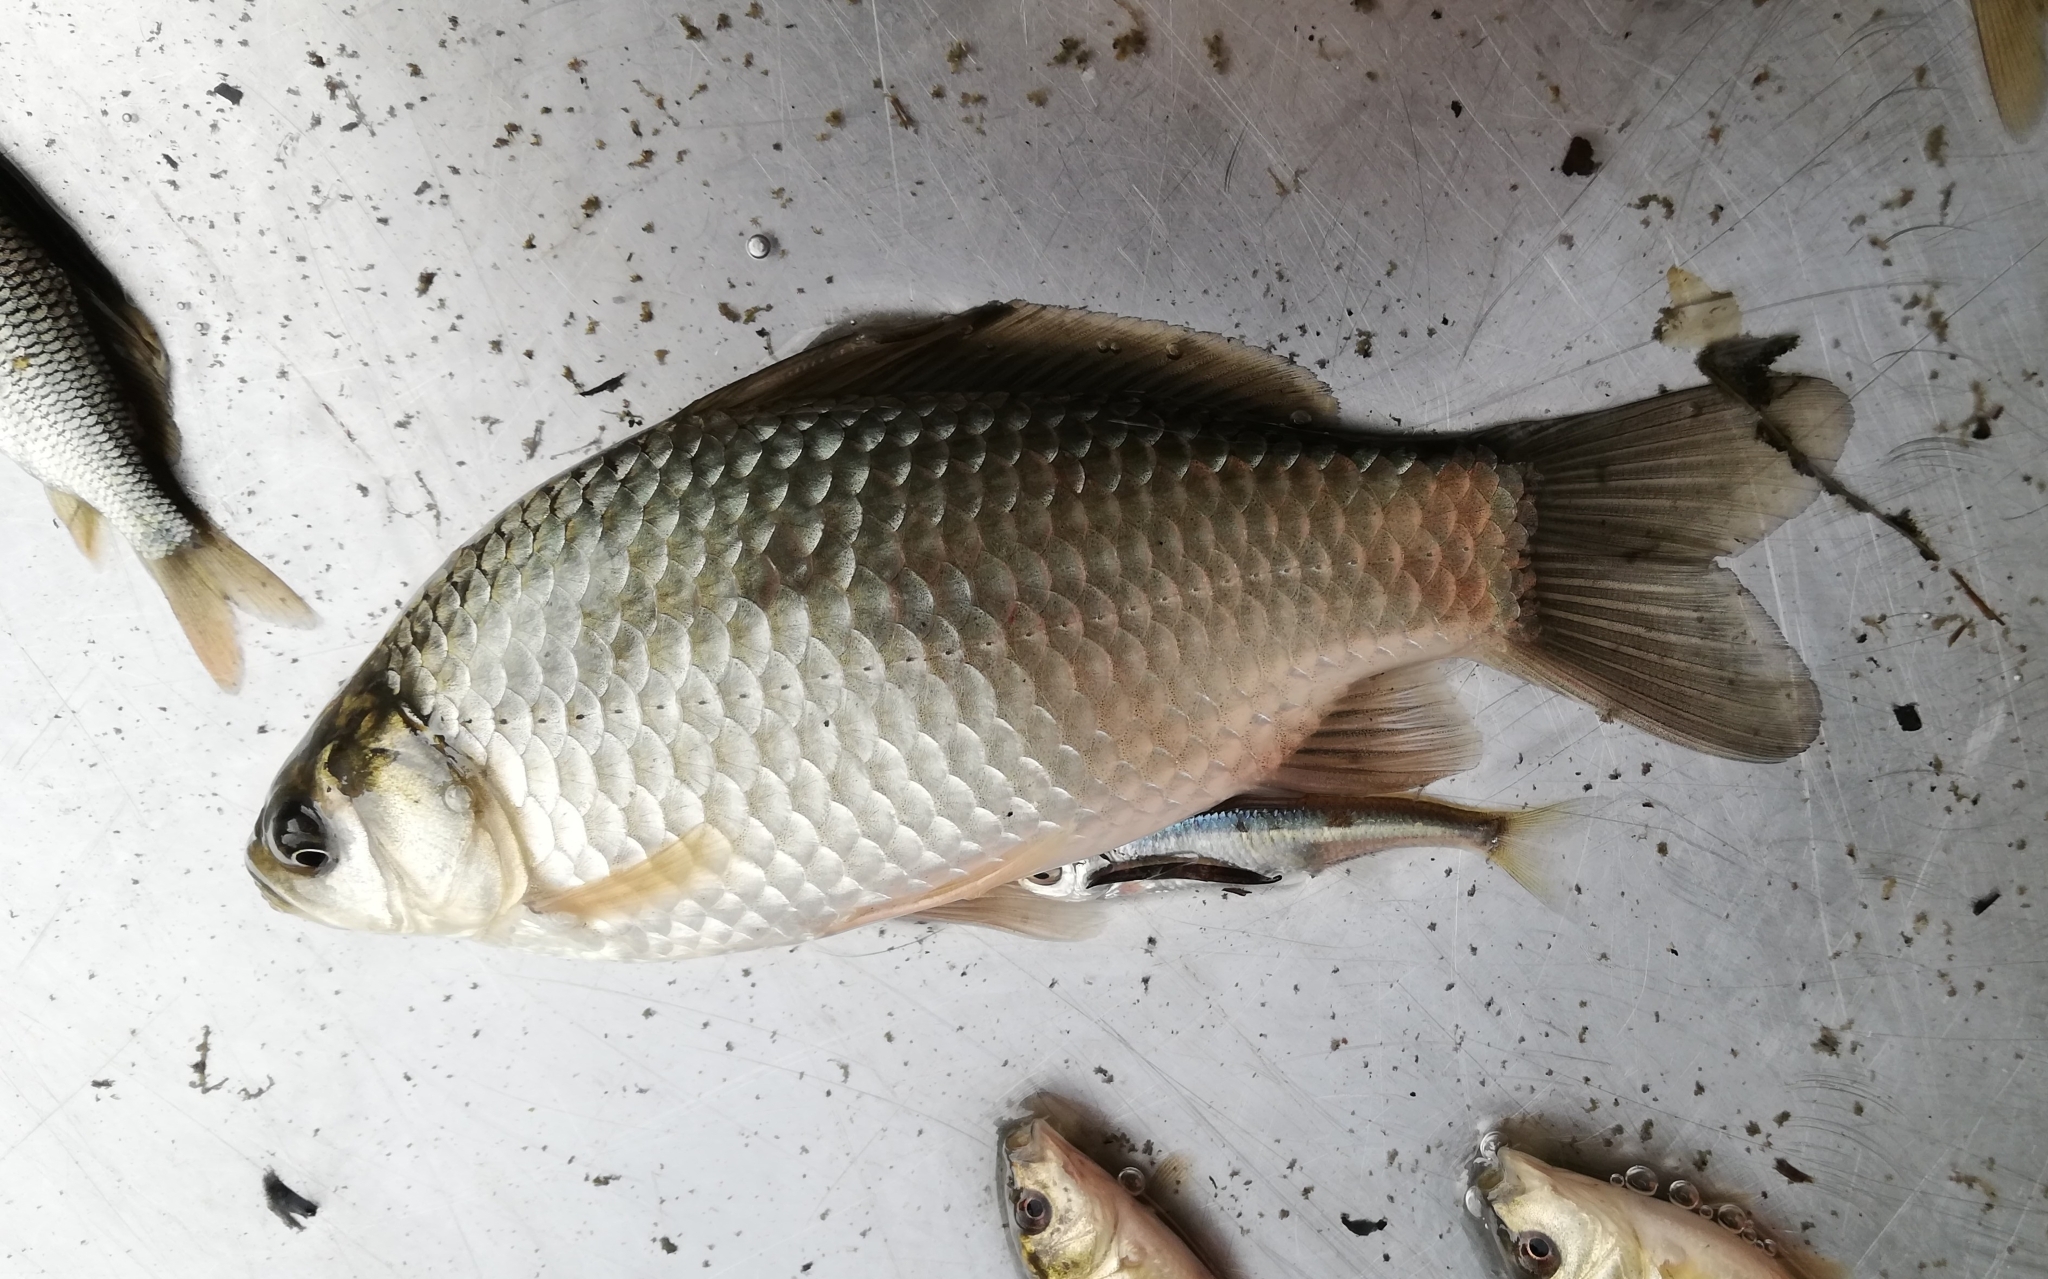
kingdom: Animalia
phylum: Chordata
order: Cypriniformes
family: Cyprinidae
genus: Carassius
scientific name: Carassius gibelio
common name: Prussian carp
